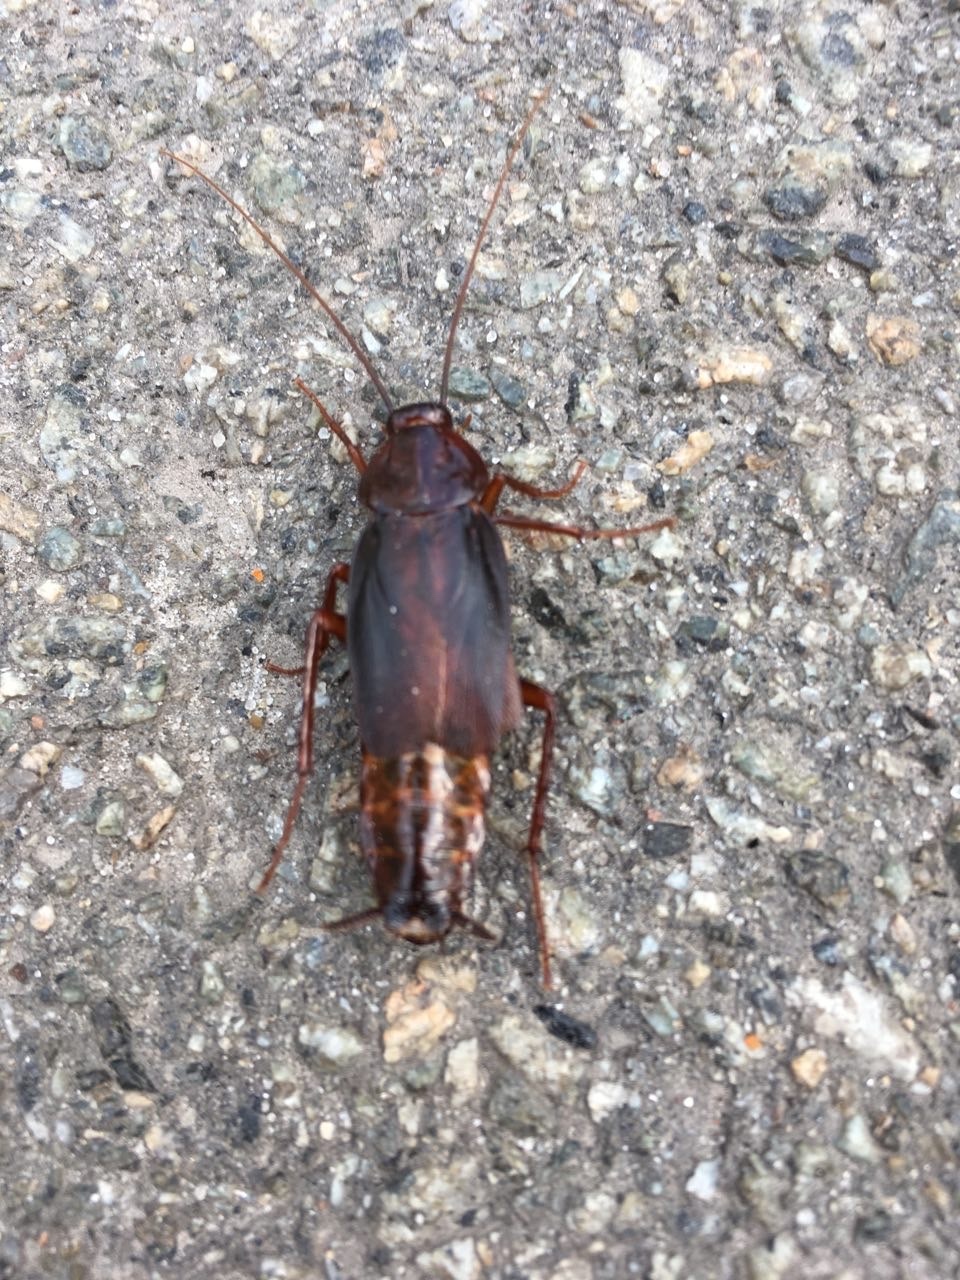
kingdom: Animalia
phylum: Arthropoda
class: Insecta
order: Blattodea
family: Blattidae
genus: Blatta
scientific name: Blatta orientalis
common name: Oriental cockroach
